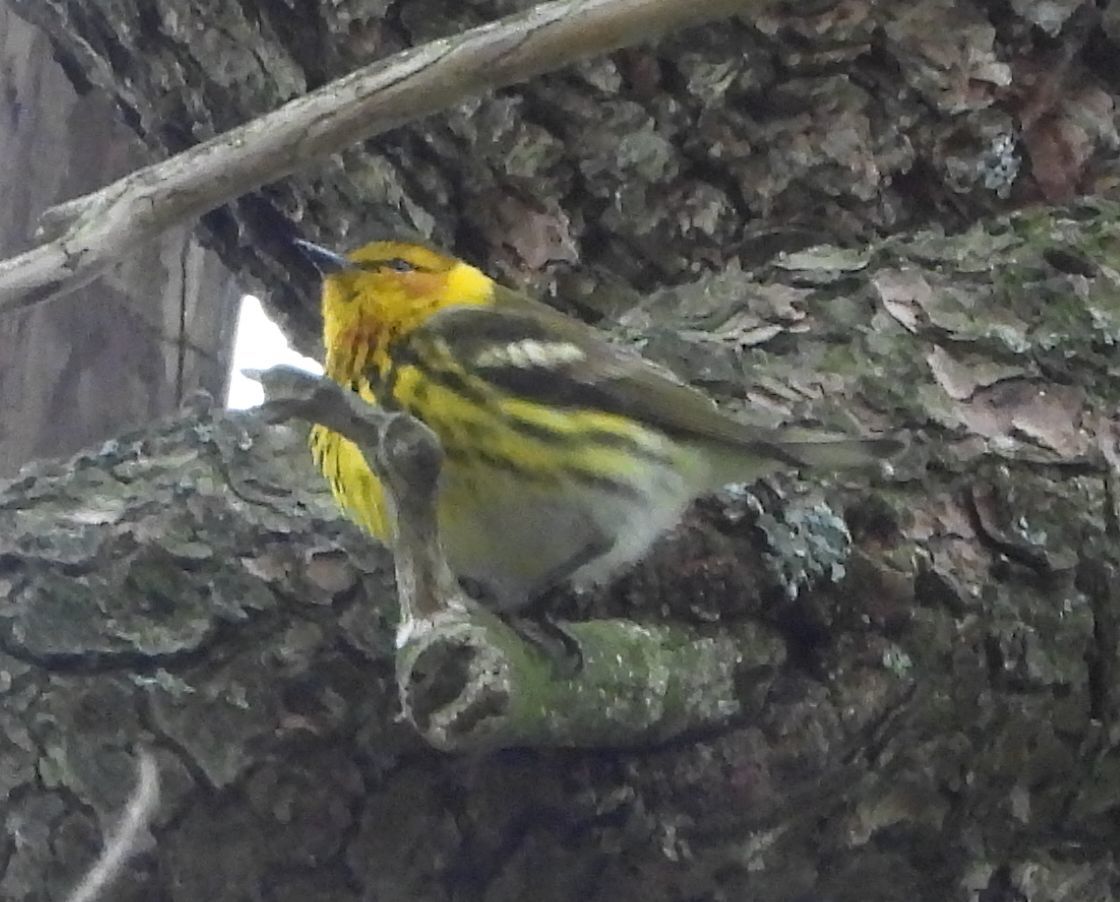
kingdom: Animalia
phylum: Chordata
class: Aves
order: Passeriformes
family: Parulidae
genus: Setophaga
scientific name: Setophaga tigrina
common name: Cape may warbler
